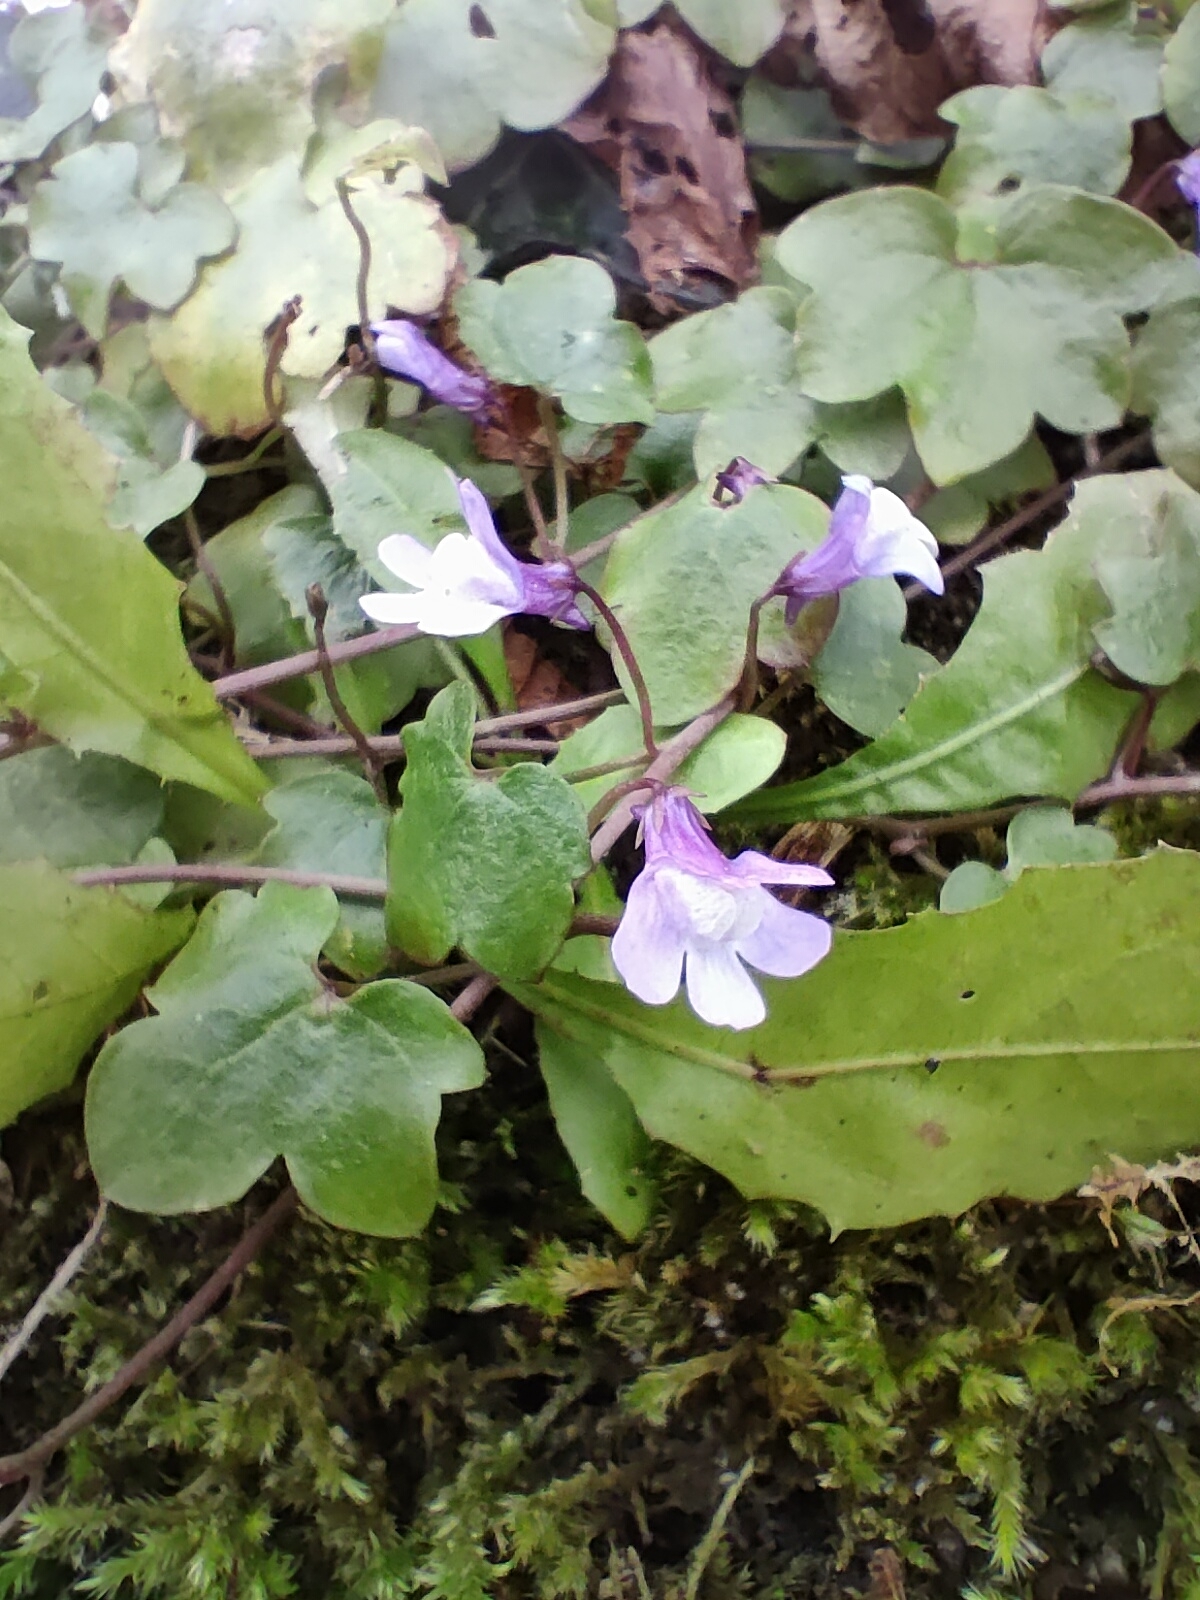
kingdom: Plantae
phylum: Tracheophyta
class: Magnoliopsida
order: Lamiales
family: Plantaginaceae
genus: Cymbalaria
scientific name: Cymbalaria muralis
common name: Ivy-leaved toadflax
